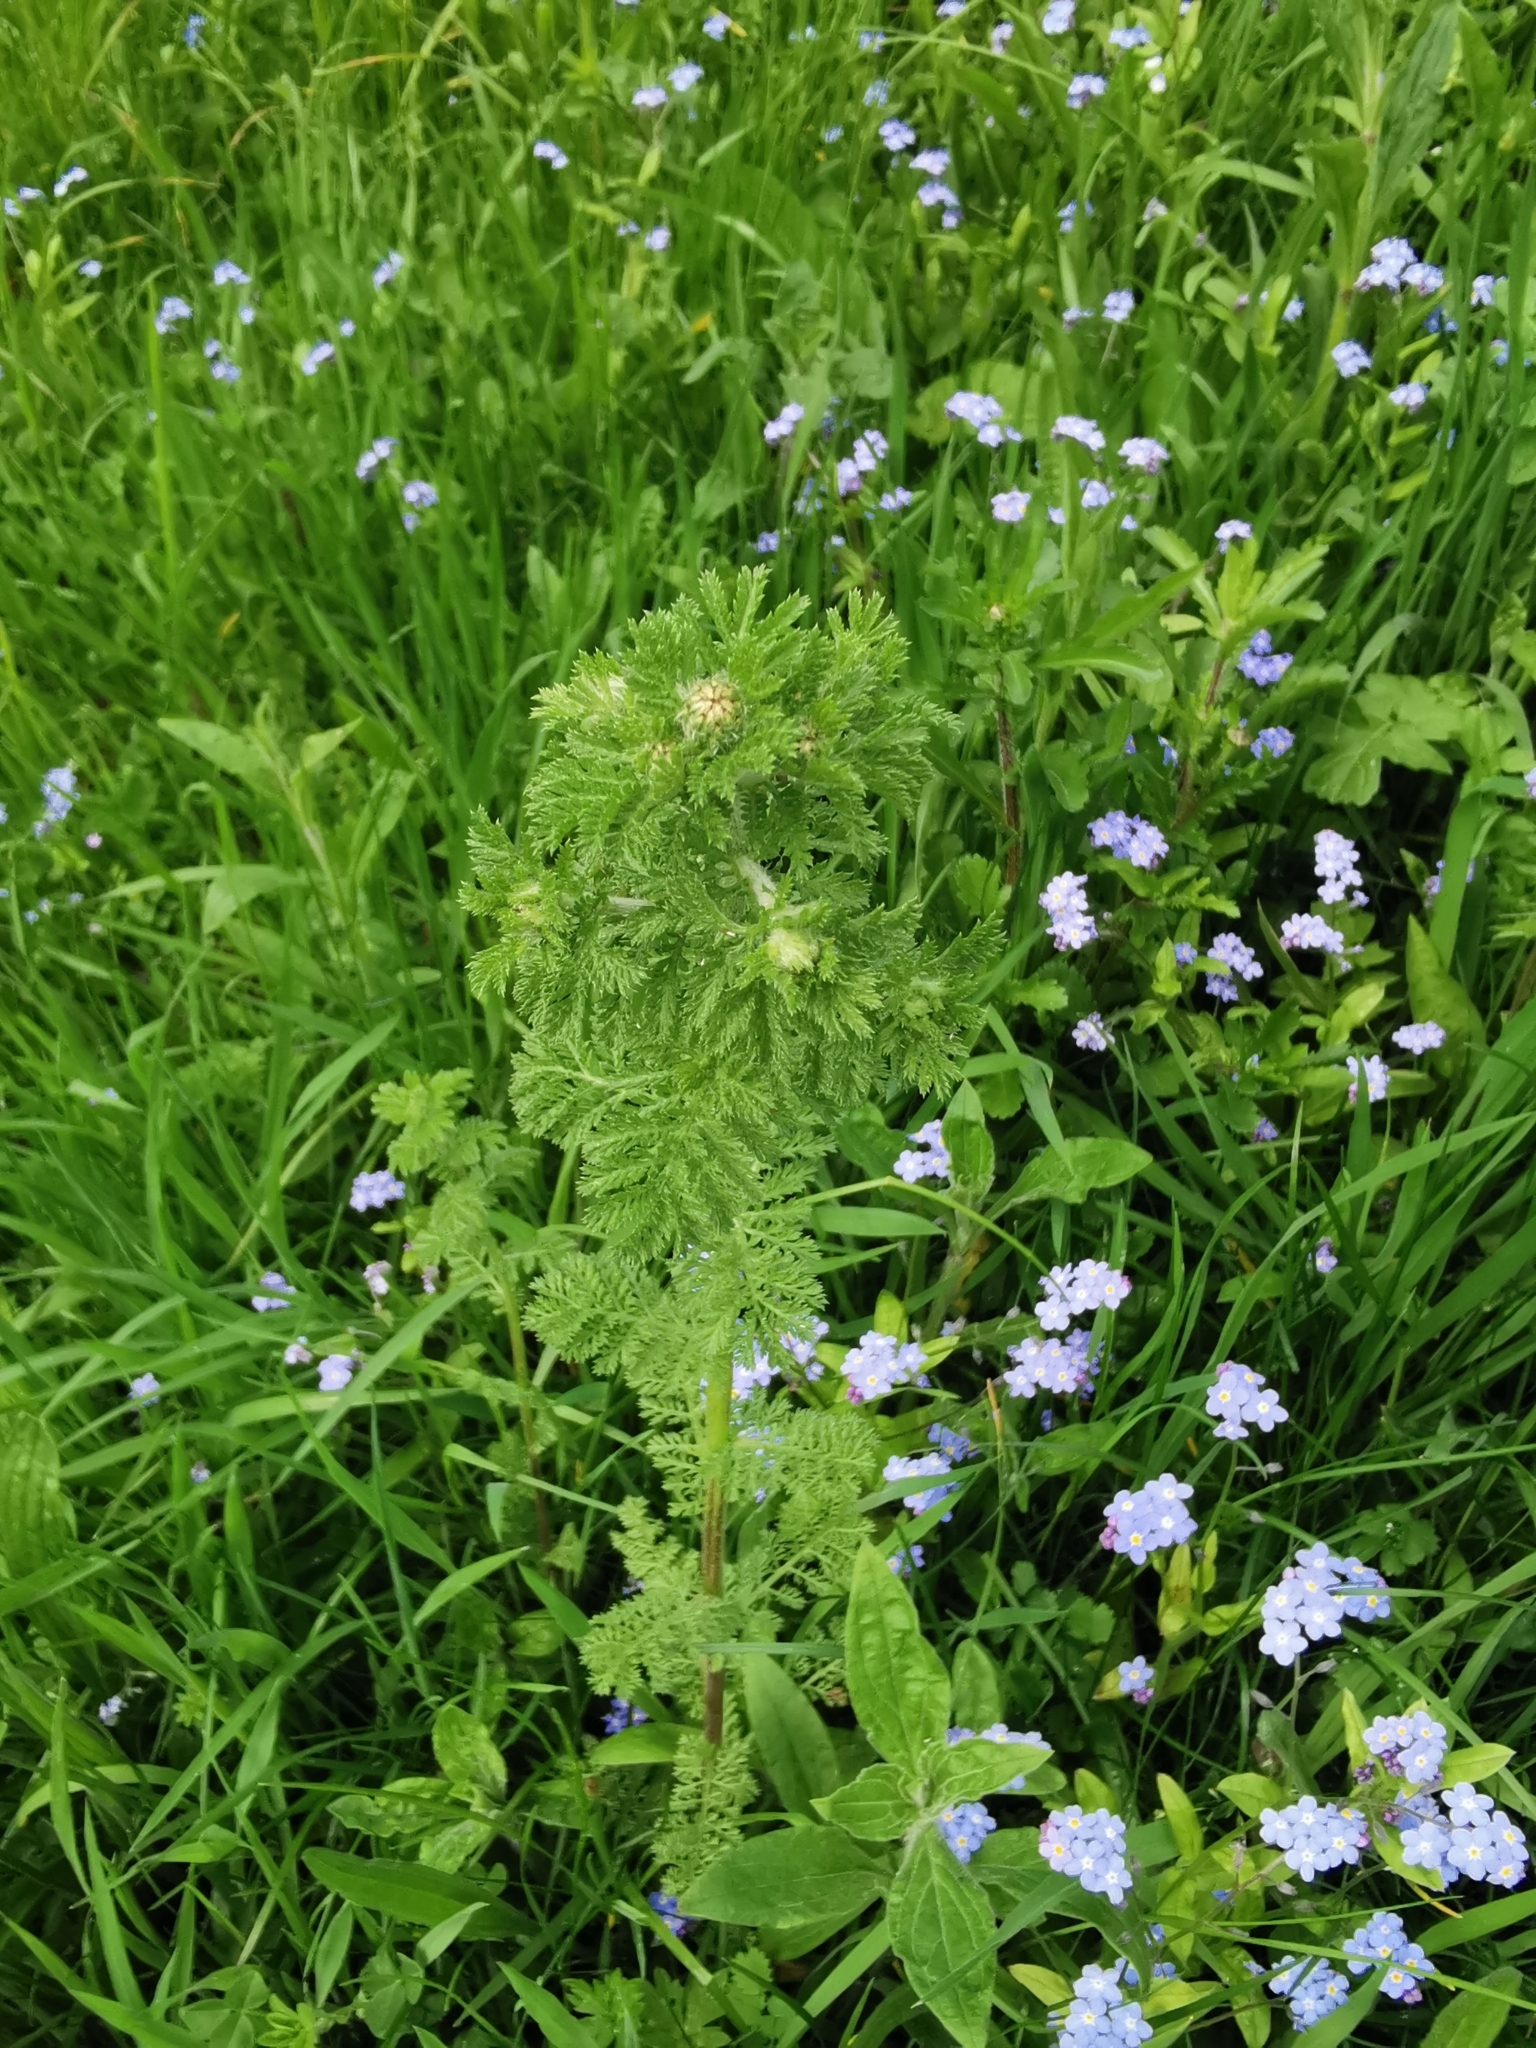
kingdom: Plantae
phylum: Tracheophyta
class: Magnoliopsida
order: Asterales
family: Asteraceae
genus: Tanacetum
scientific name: Tanacetum vulgare
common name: Common tansy
